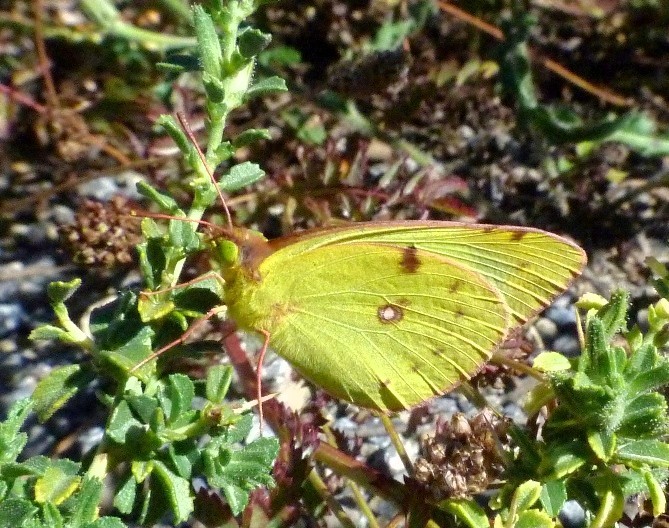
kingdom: Animalia
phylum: Arthropoda
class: Insecta
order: Lepidoptera
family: Pieridae
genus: Colias
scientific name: Colias alfacariensis
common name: Berger's clouded yellow
